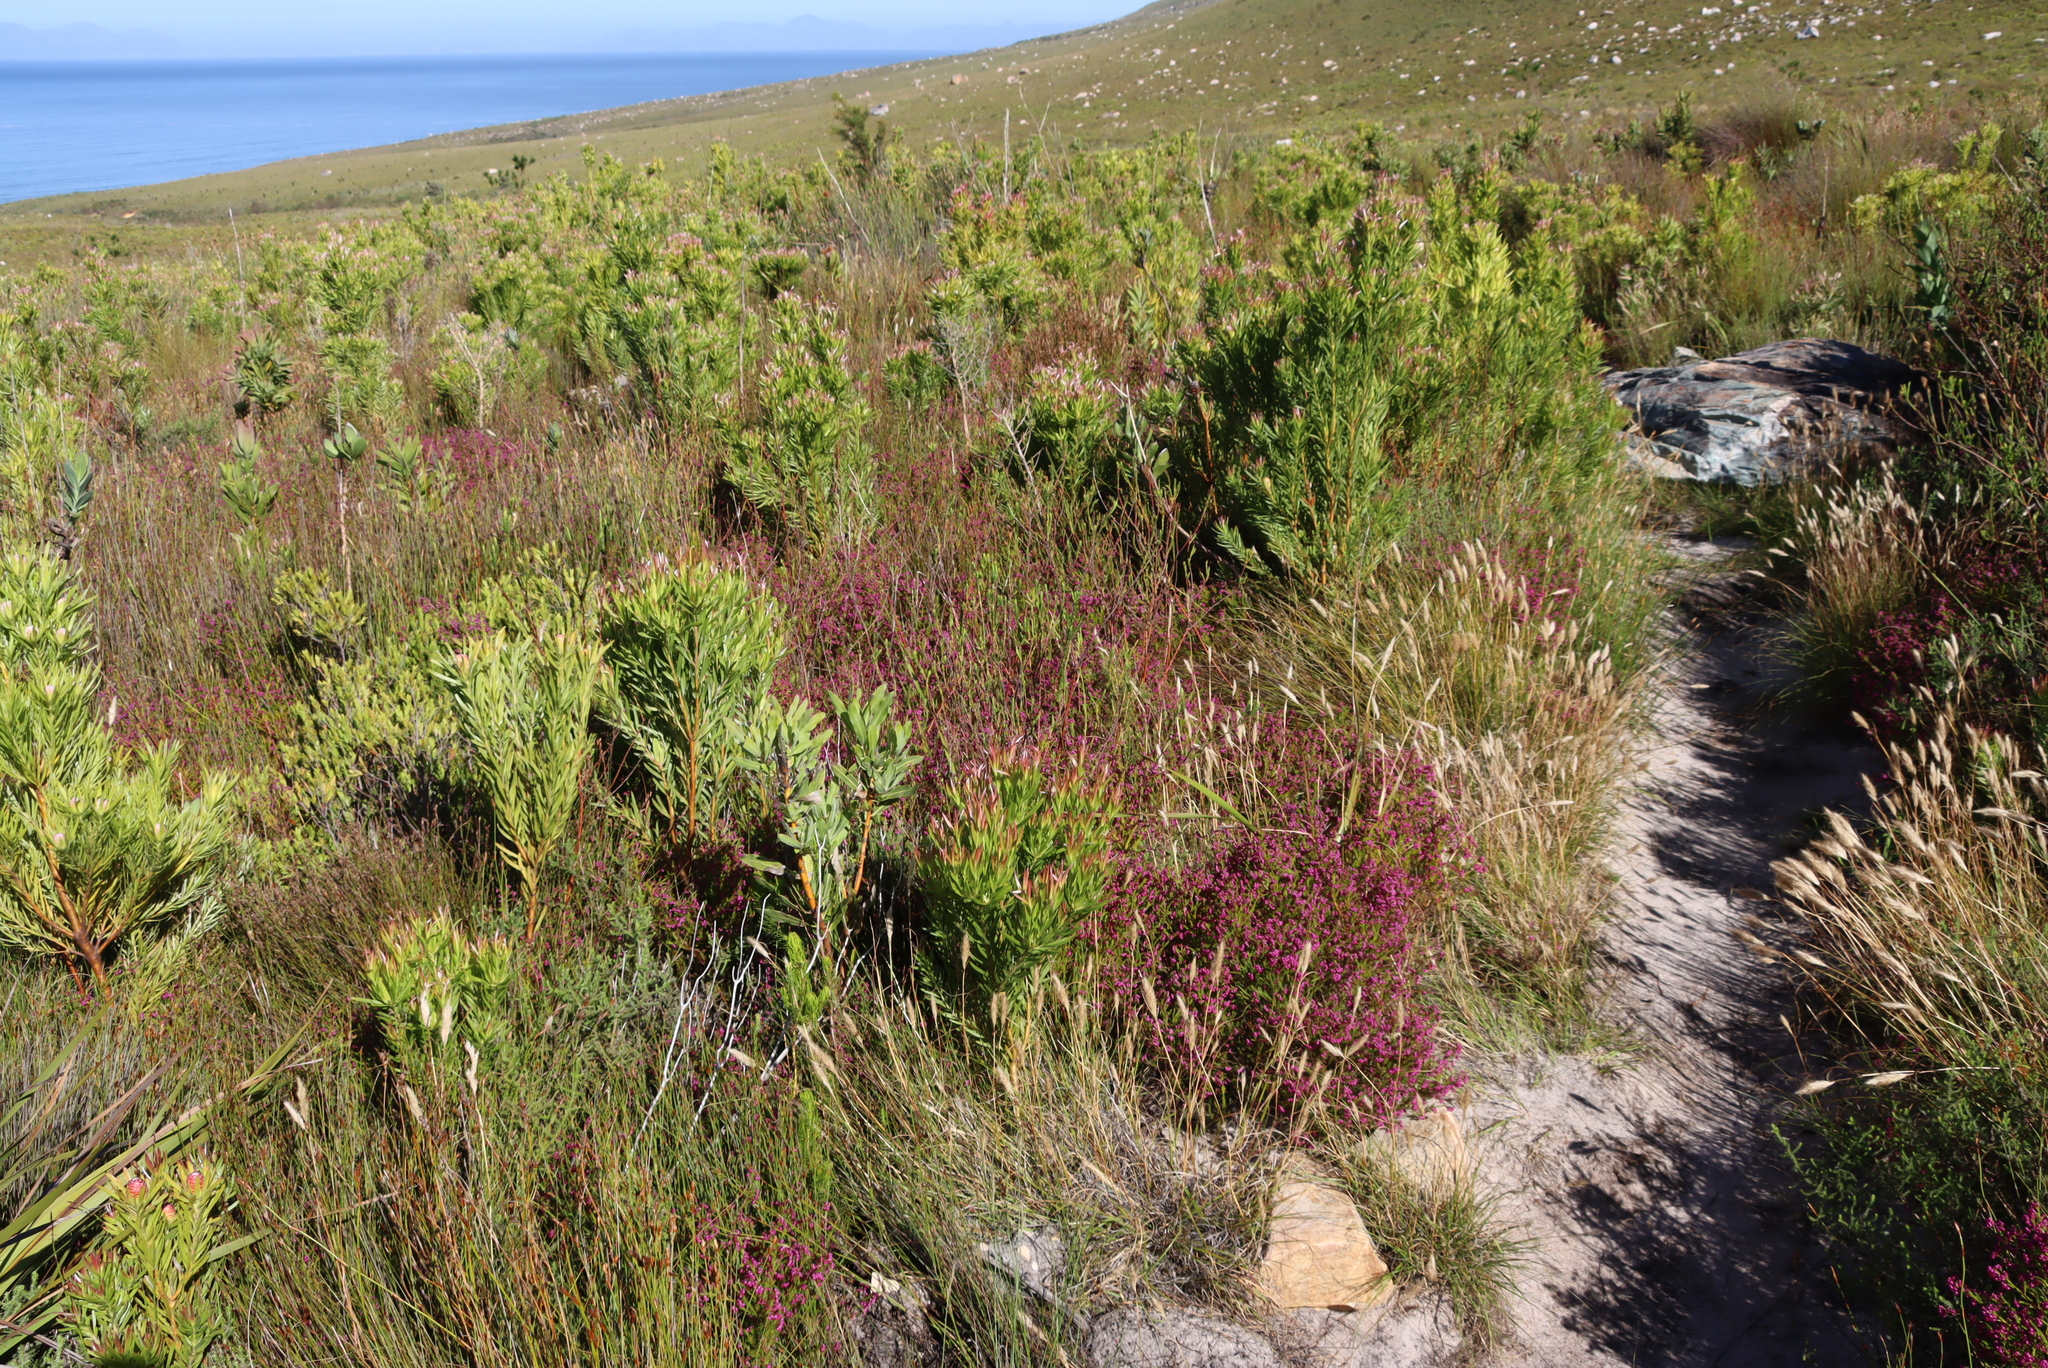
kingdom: Plantae
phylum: Tracheophyta
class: Magnoliopsida
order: Ericales
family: Ericaceae
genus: Erica
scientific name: Erica multumbellifera
